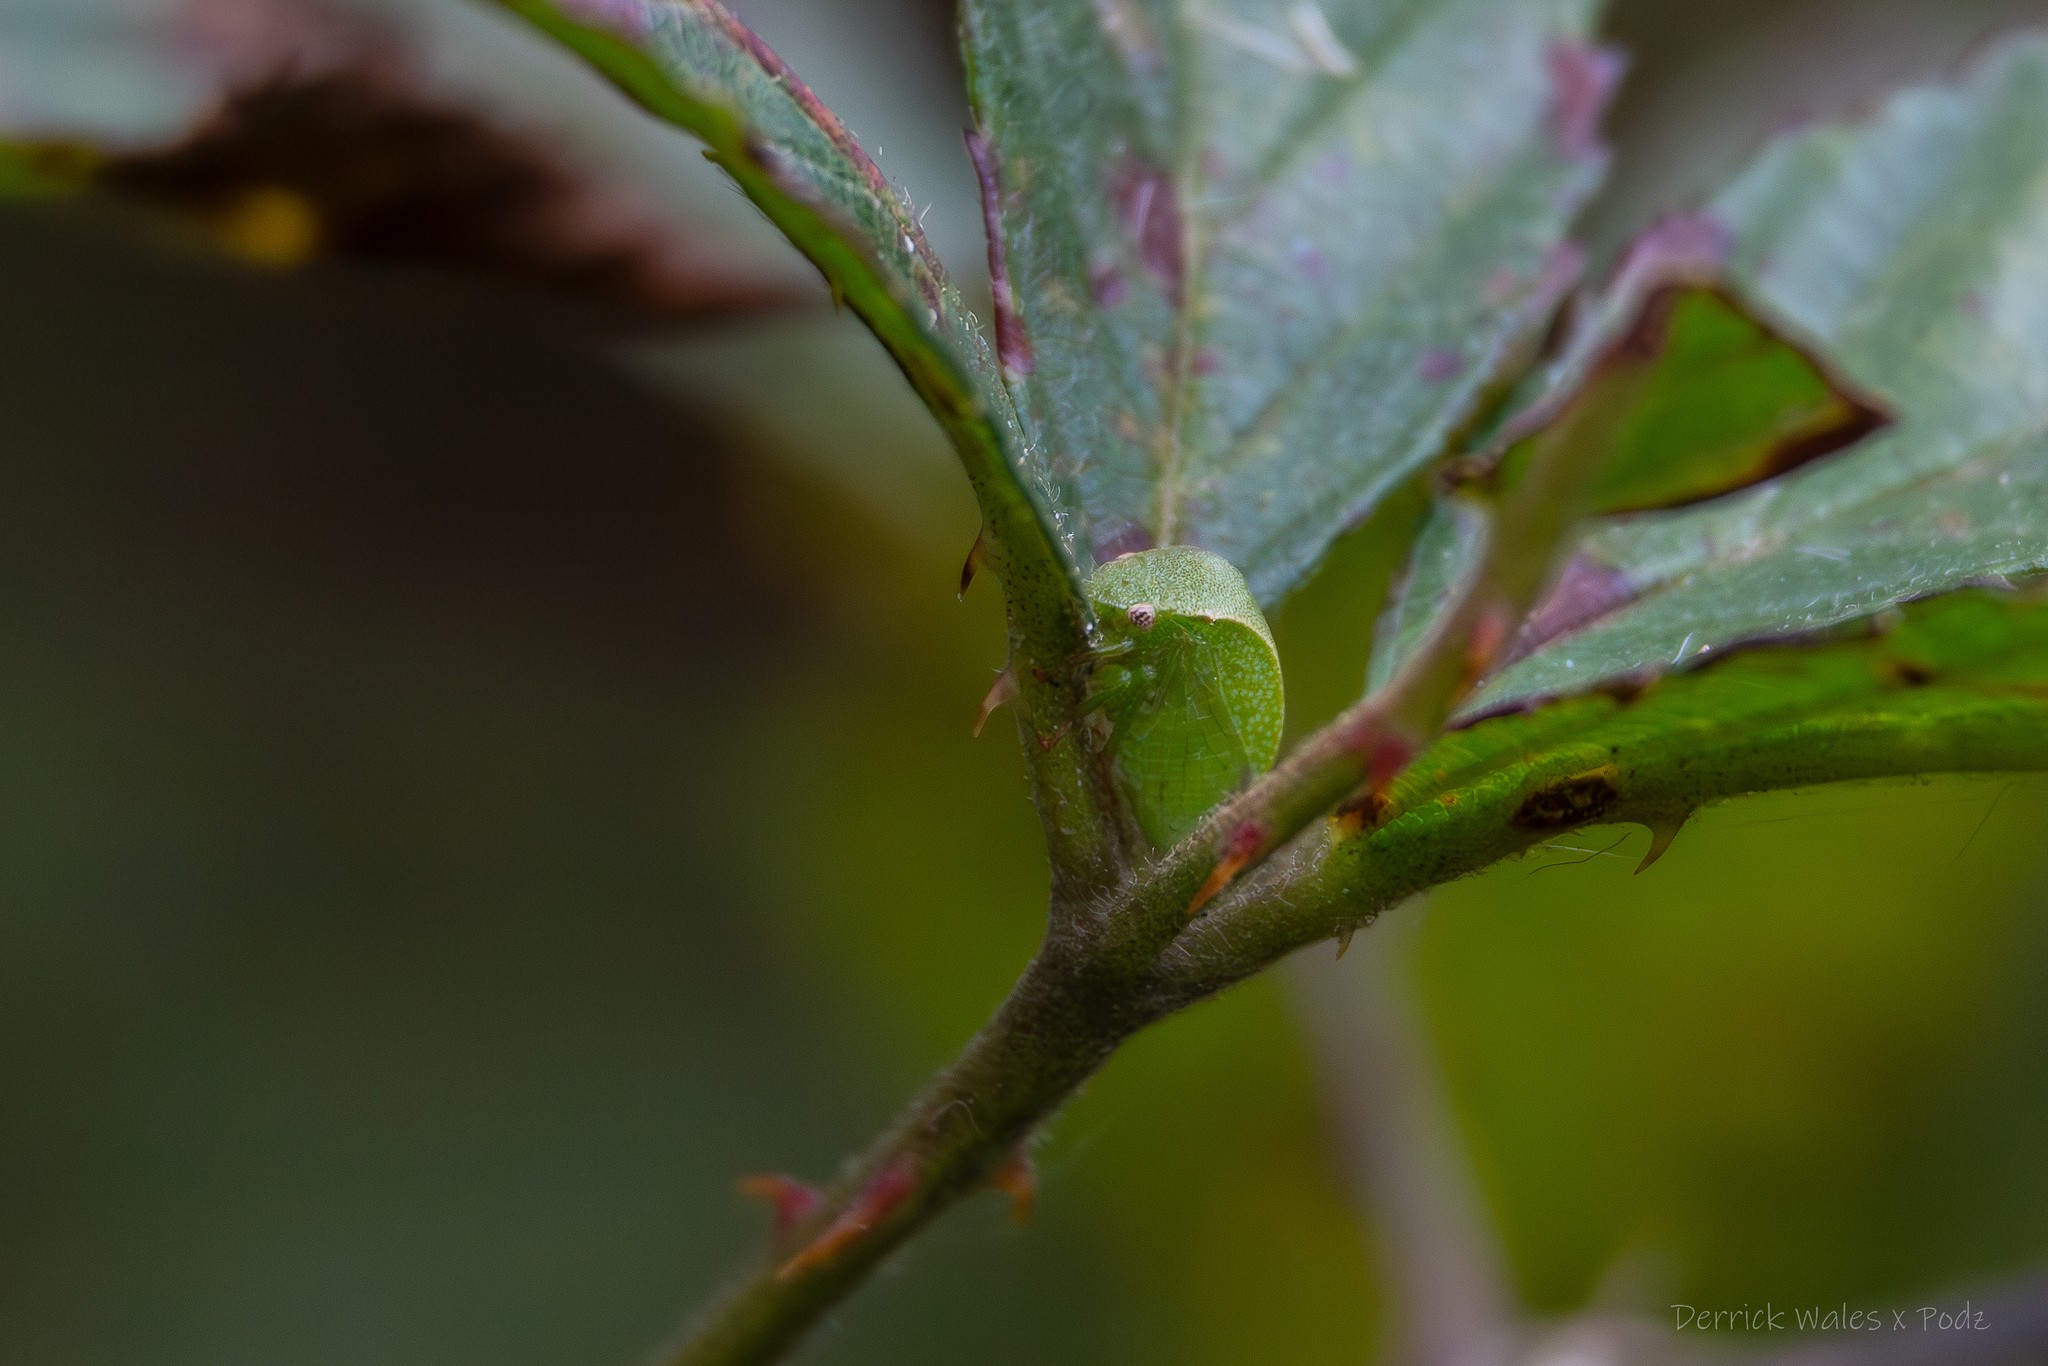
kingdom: Animalia
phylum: Arthropoda
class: Insecta
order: Hemiptera
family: Membracidae
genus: Spissistilus
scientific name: Spissistilus festina
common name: Membracid bug
